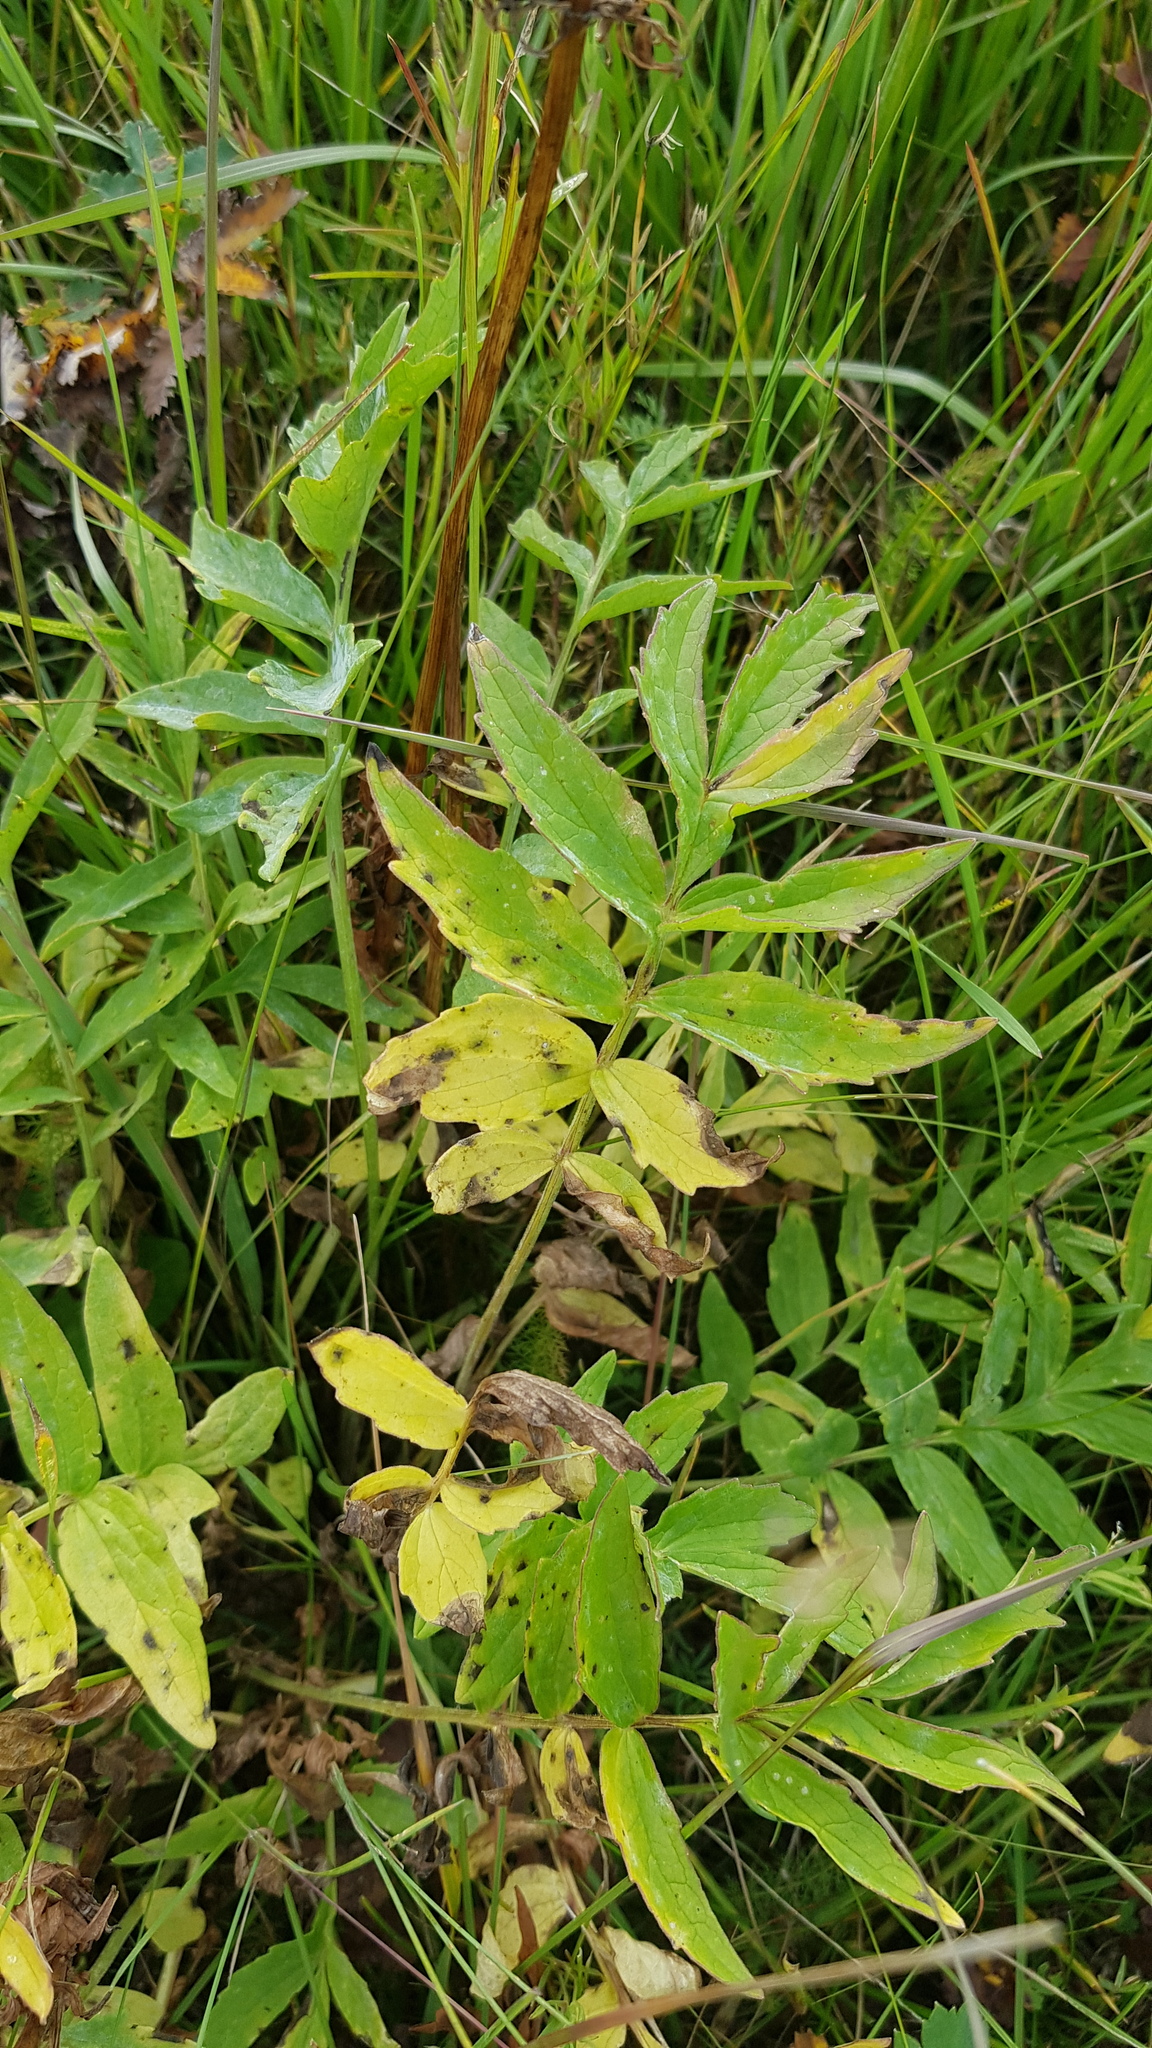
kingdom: Plantae
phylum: Tracheophyta
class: Magnoliopsida
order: Dipsacales
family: Caprifoliaceae
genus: Valeriana
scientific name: Valeriana officinalis
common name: Common valerian
